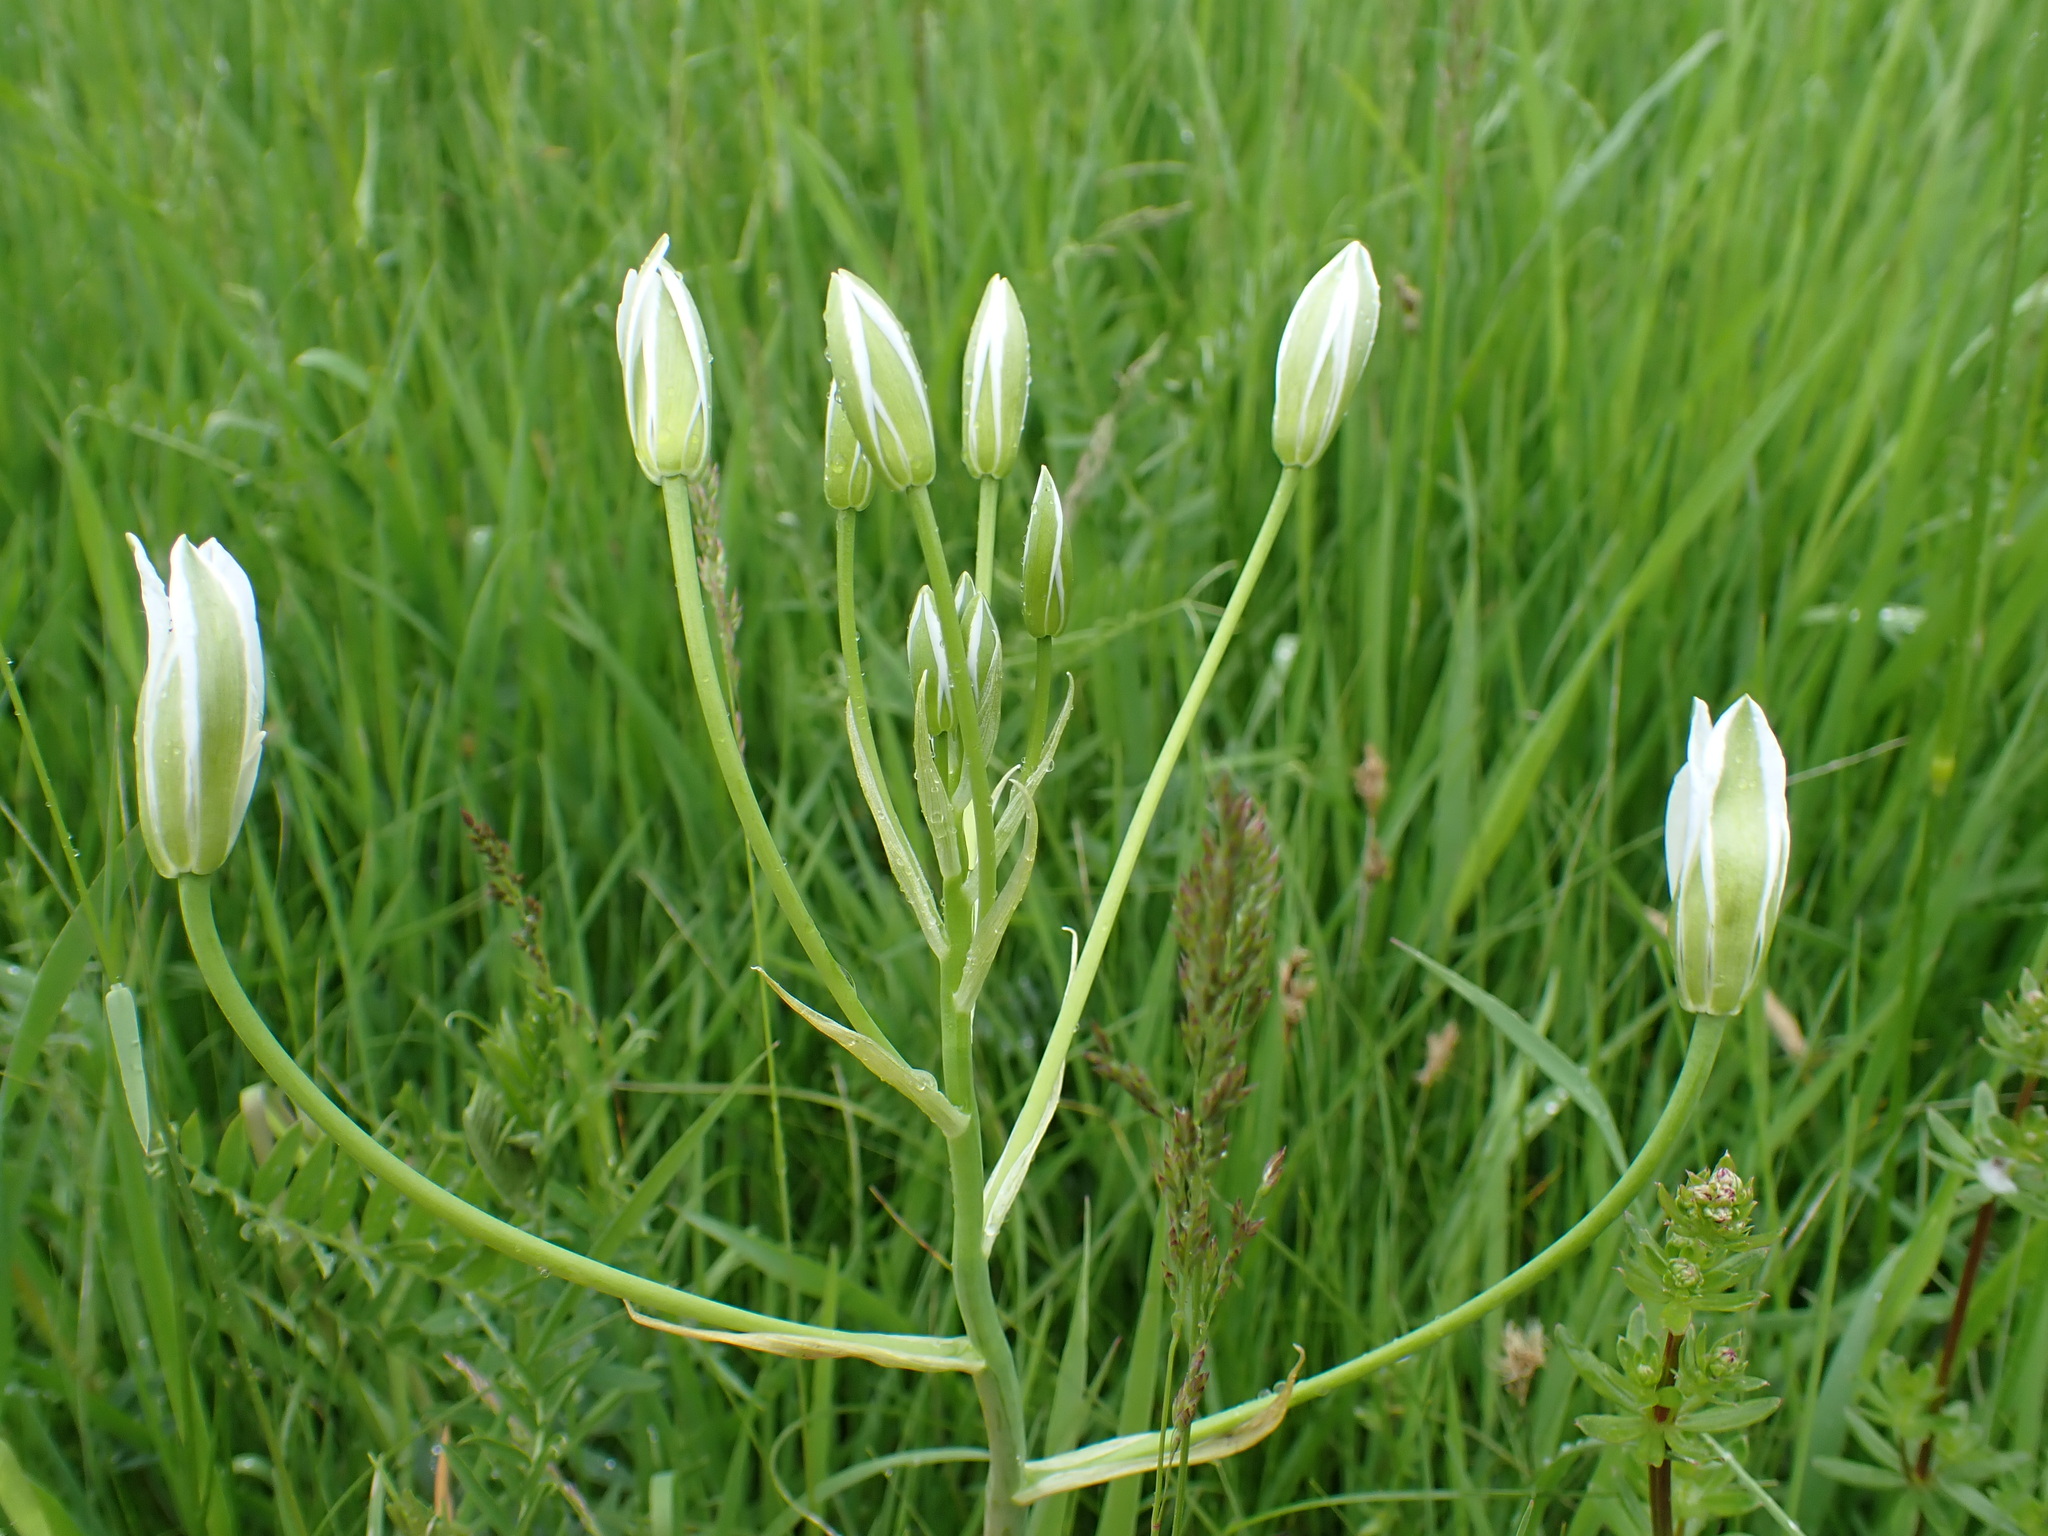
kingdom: Plantae
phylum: Tracheophyta
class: Liliopsida
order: Asparagales
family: Asparagaceae
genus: Ornithogalum
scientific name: Ornithogalum orthophyllum
